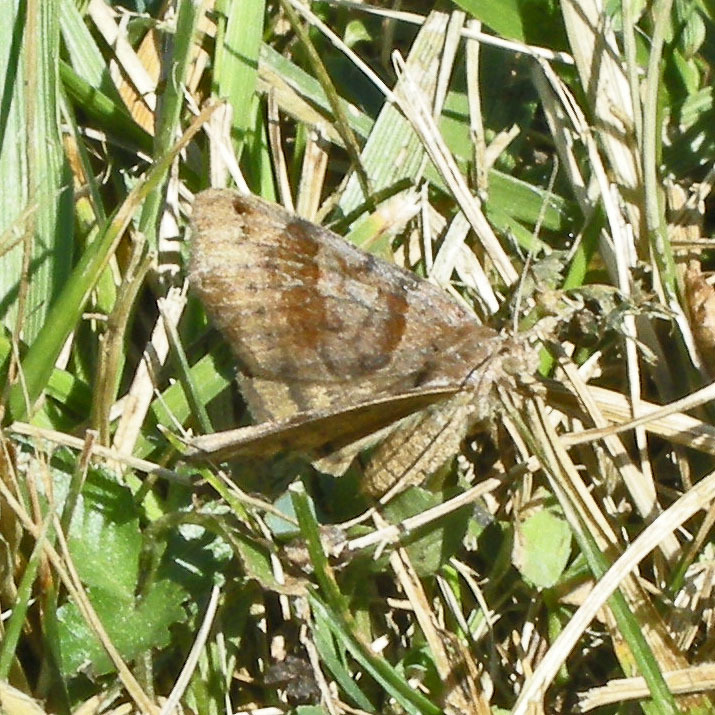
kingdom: Animalia
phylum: Arthropoda
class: Insecta
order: Lepidoptera
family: Erebidae
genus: Caenurgina
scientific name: Caenurgina crassiuscula
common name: Double-barred
